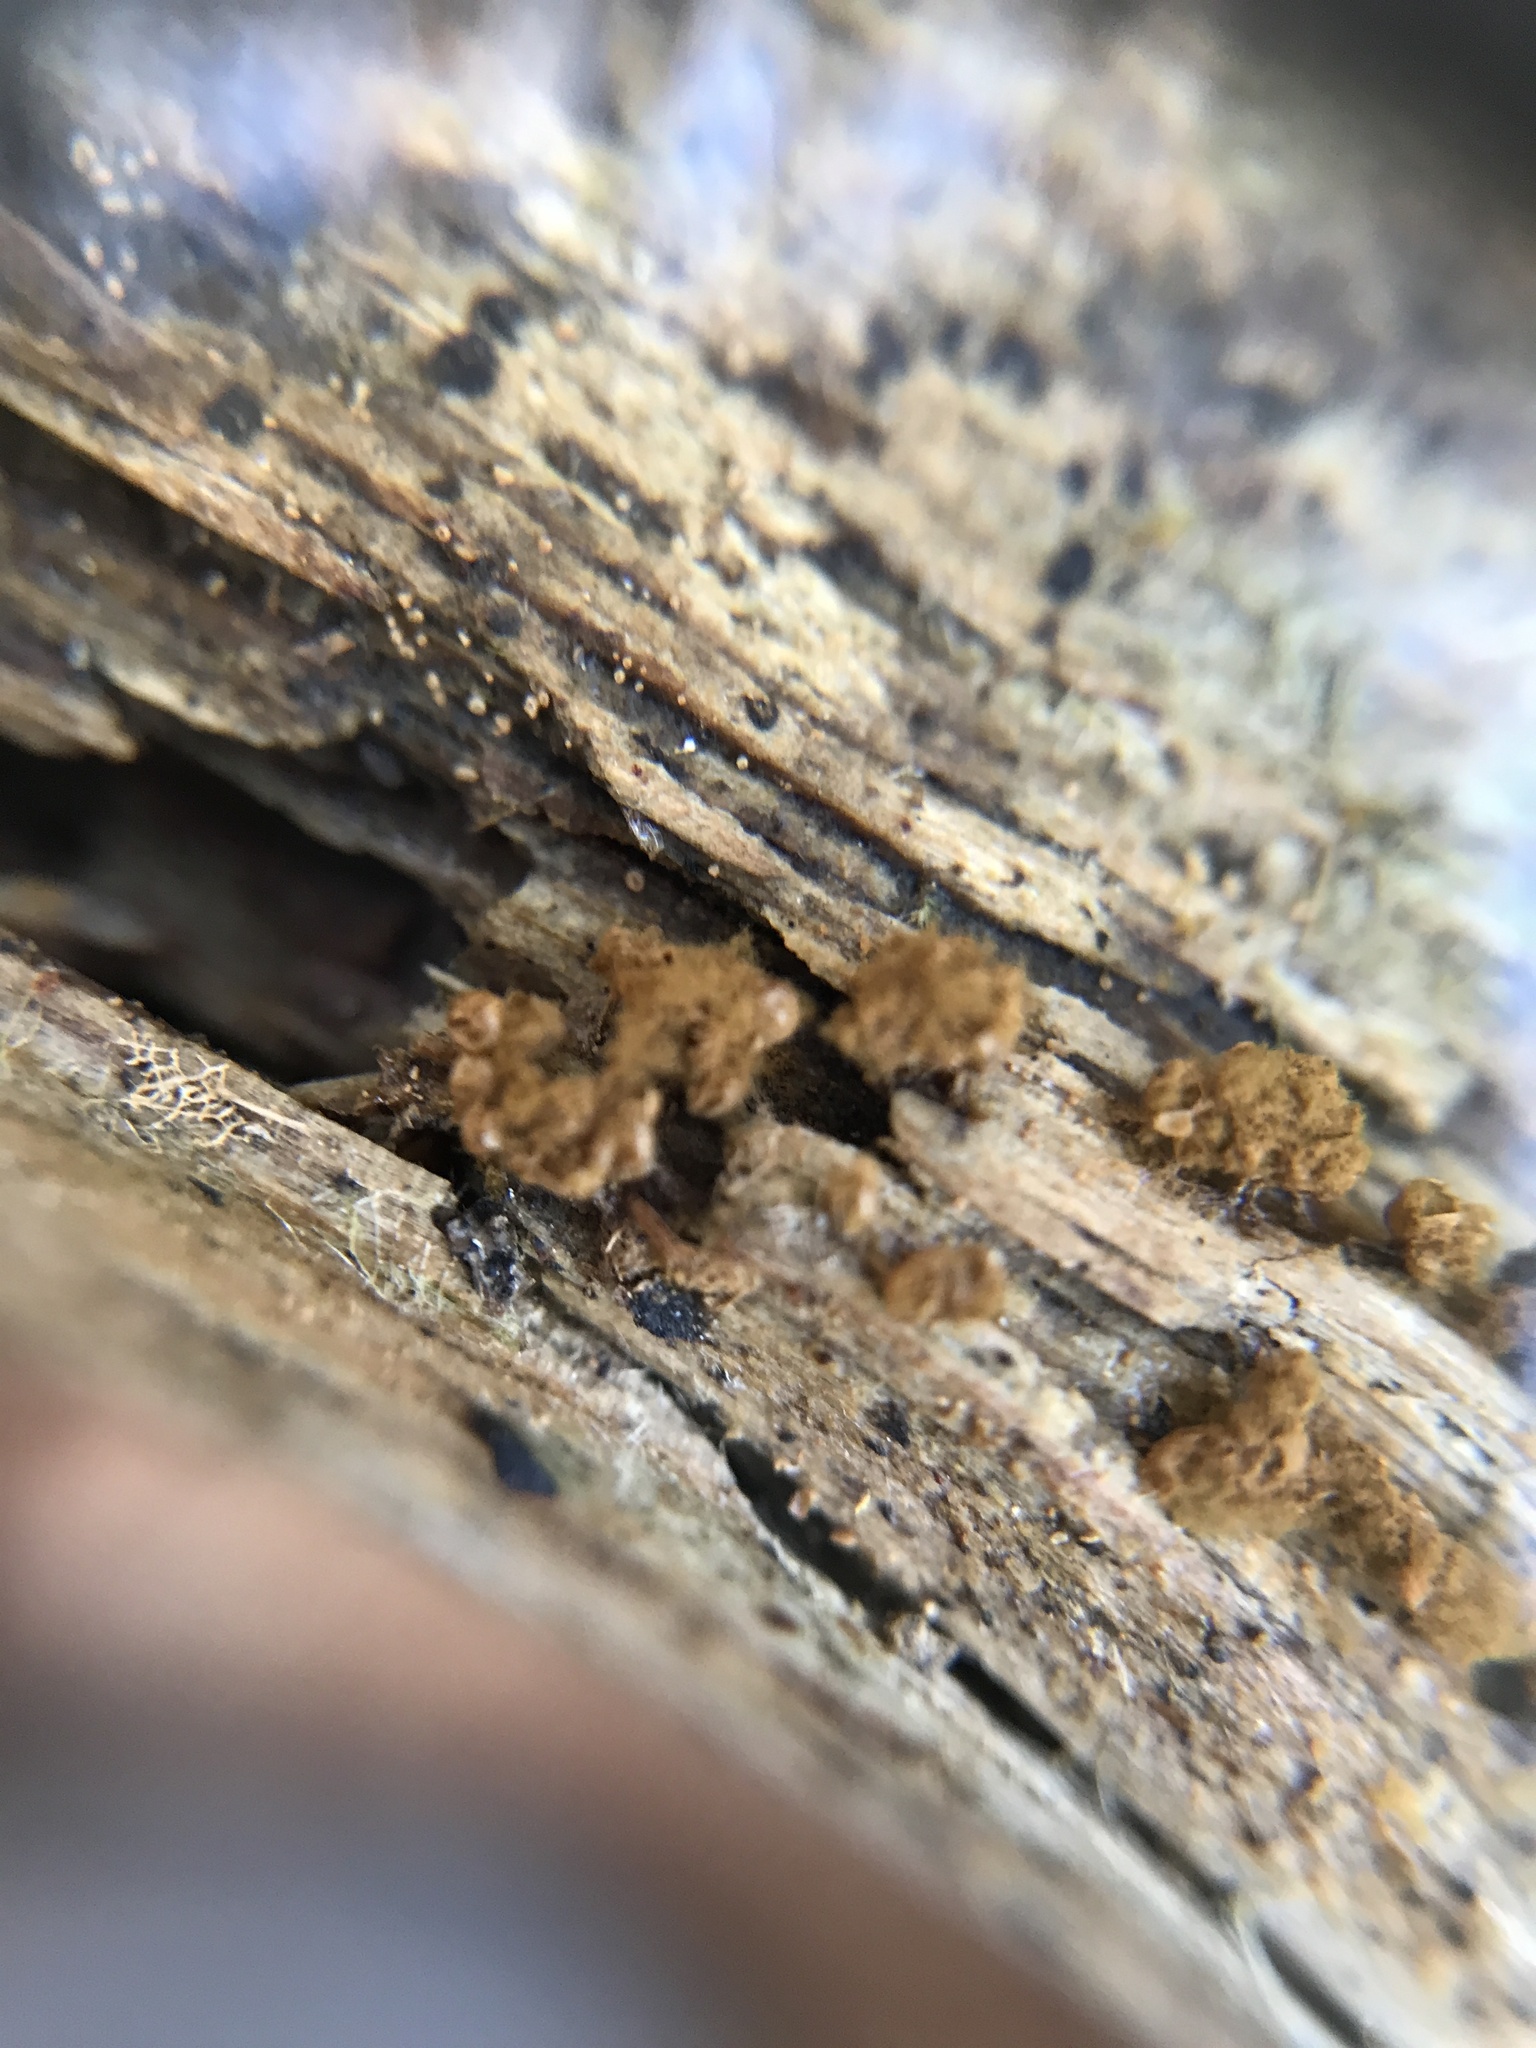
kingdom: Protozoa
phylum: Mycetozoa
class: Myxomycetes
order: Trichiales
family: Arcyriaceae
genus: Hemitrichia
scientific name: Hemitrichia clavata
